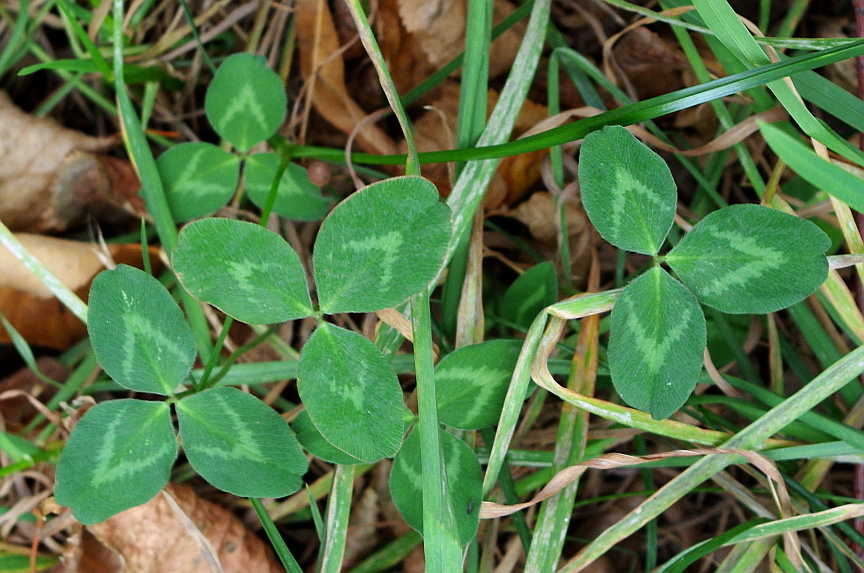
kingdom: Plantae
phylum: Tracheophyta
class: Magnoliopsida
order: Fabales
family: Fabaceae
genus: Trifolium
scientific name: Trifolium pratense
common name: Red clover
